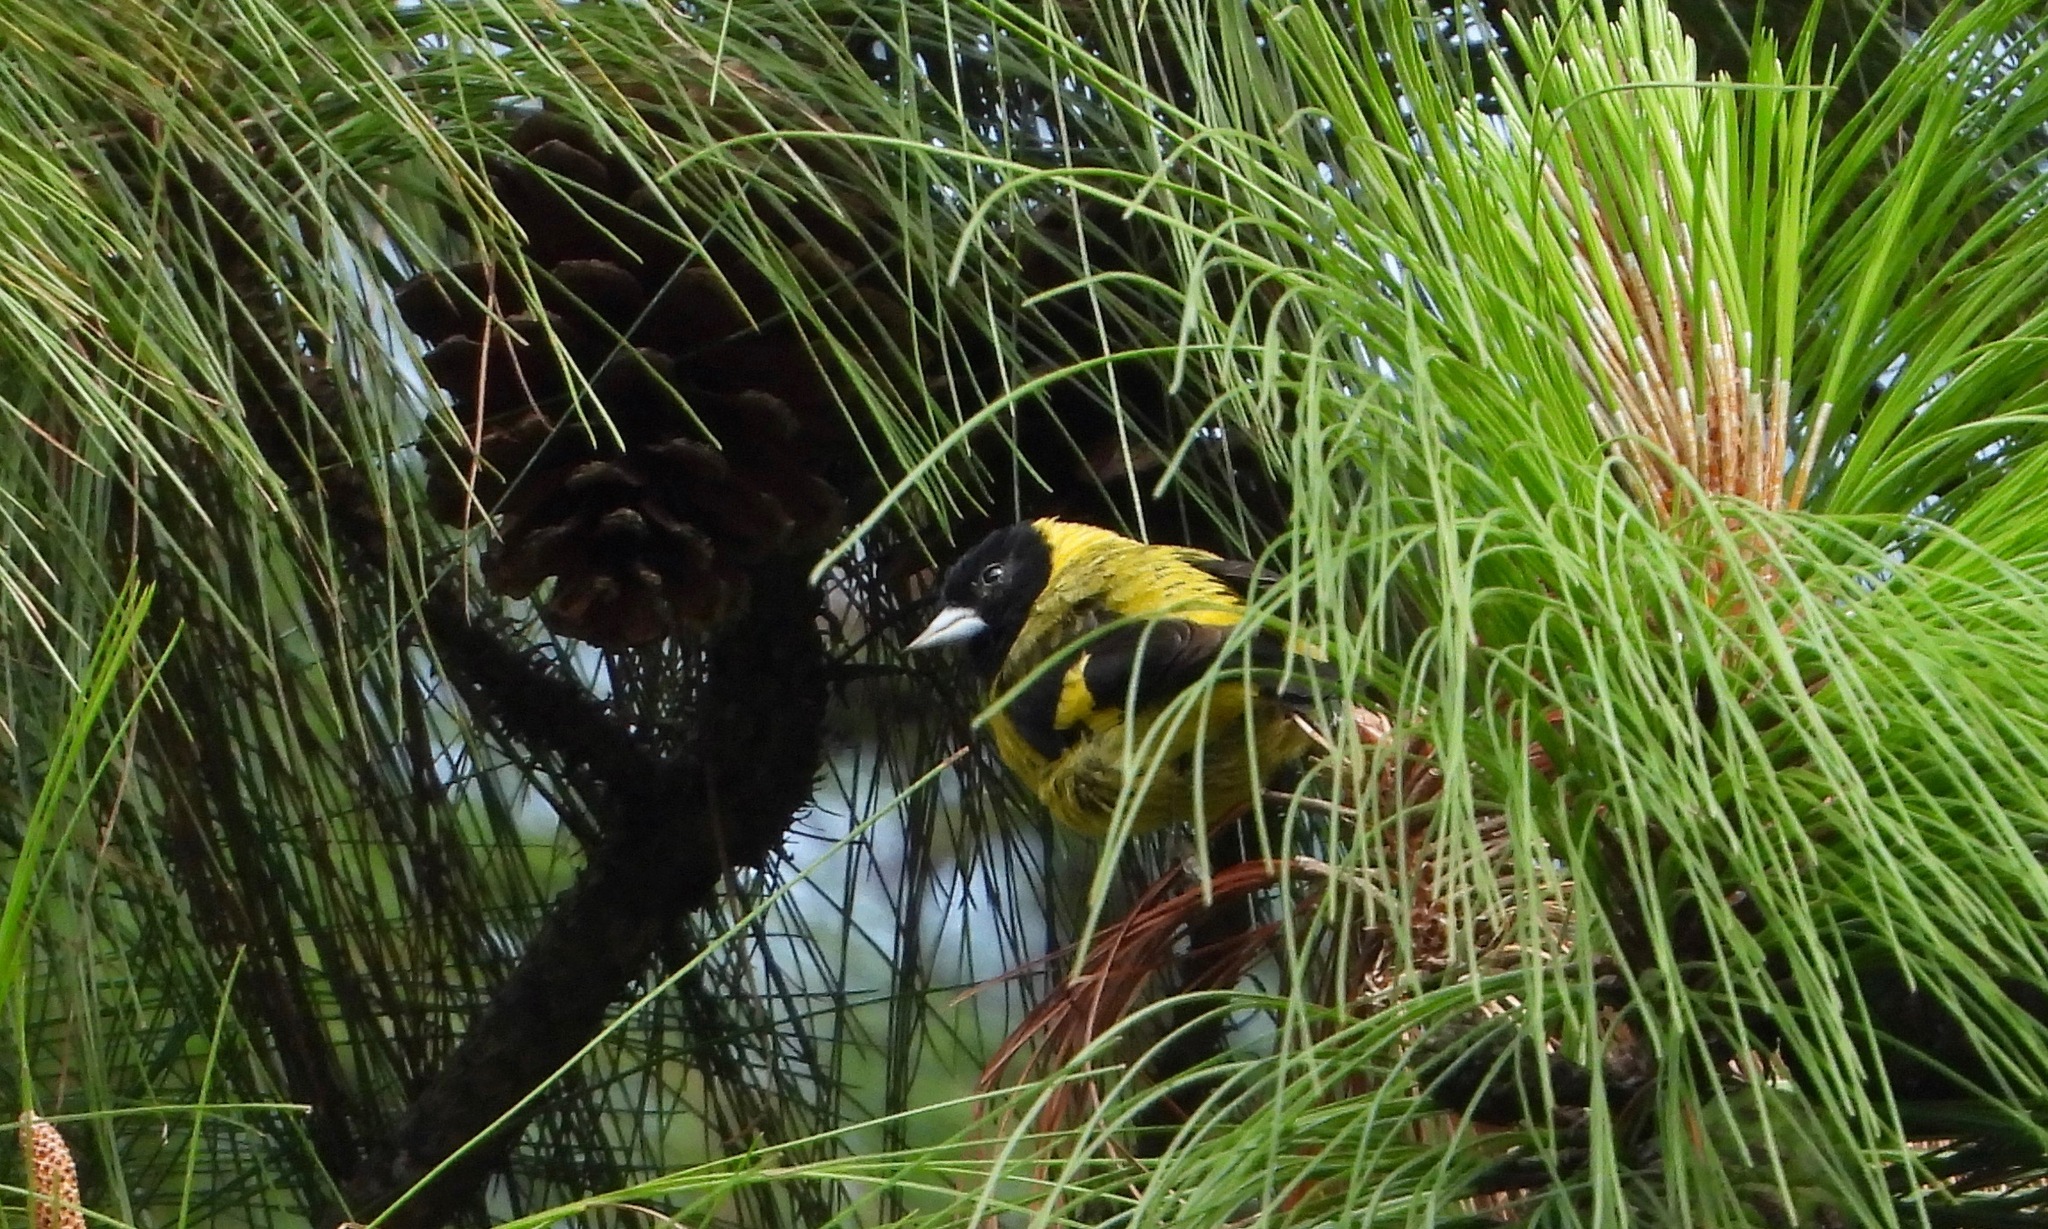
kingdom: Animalia
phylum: Chordata
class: Aves
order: Passeriformes
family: Fringillidae
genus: Spinus
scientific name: Spinus notatus
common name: Black-headed siskin
